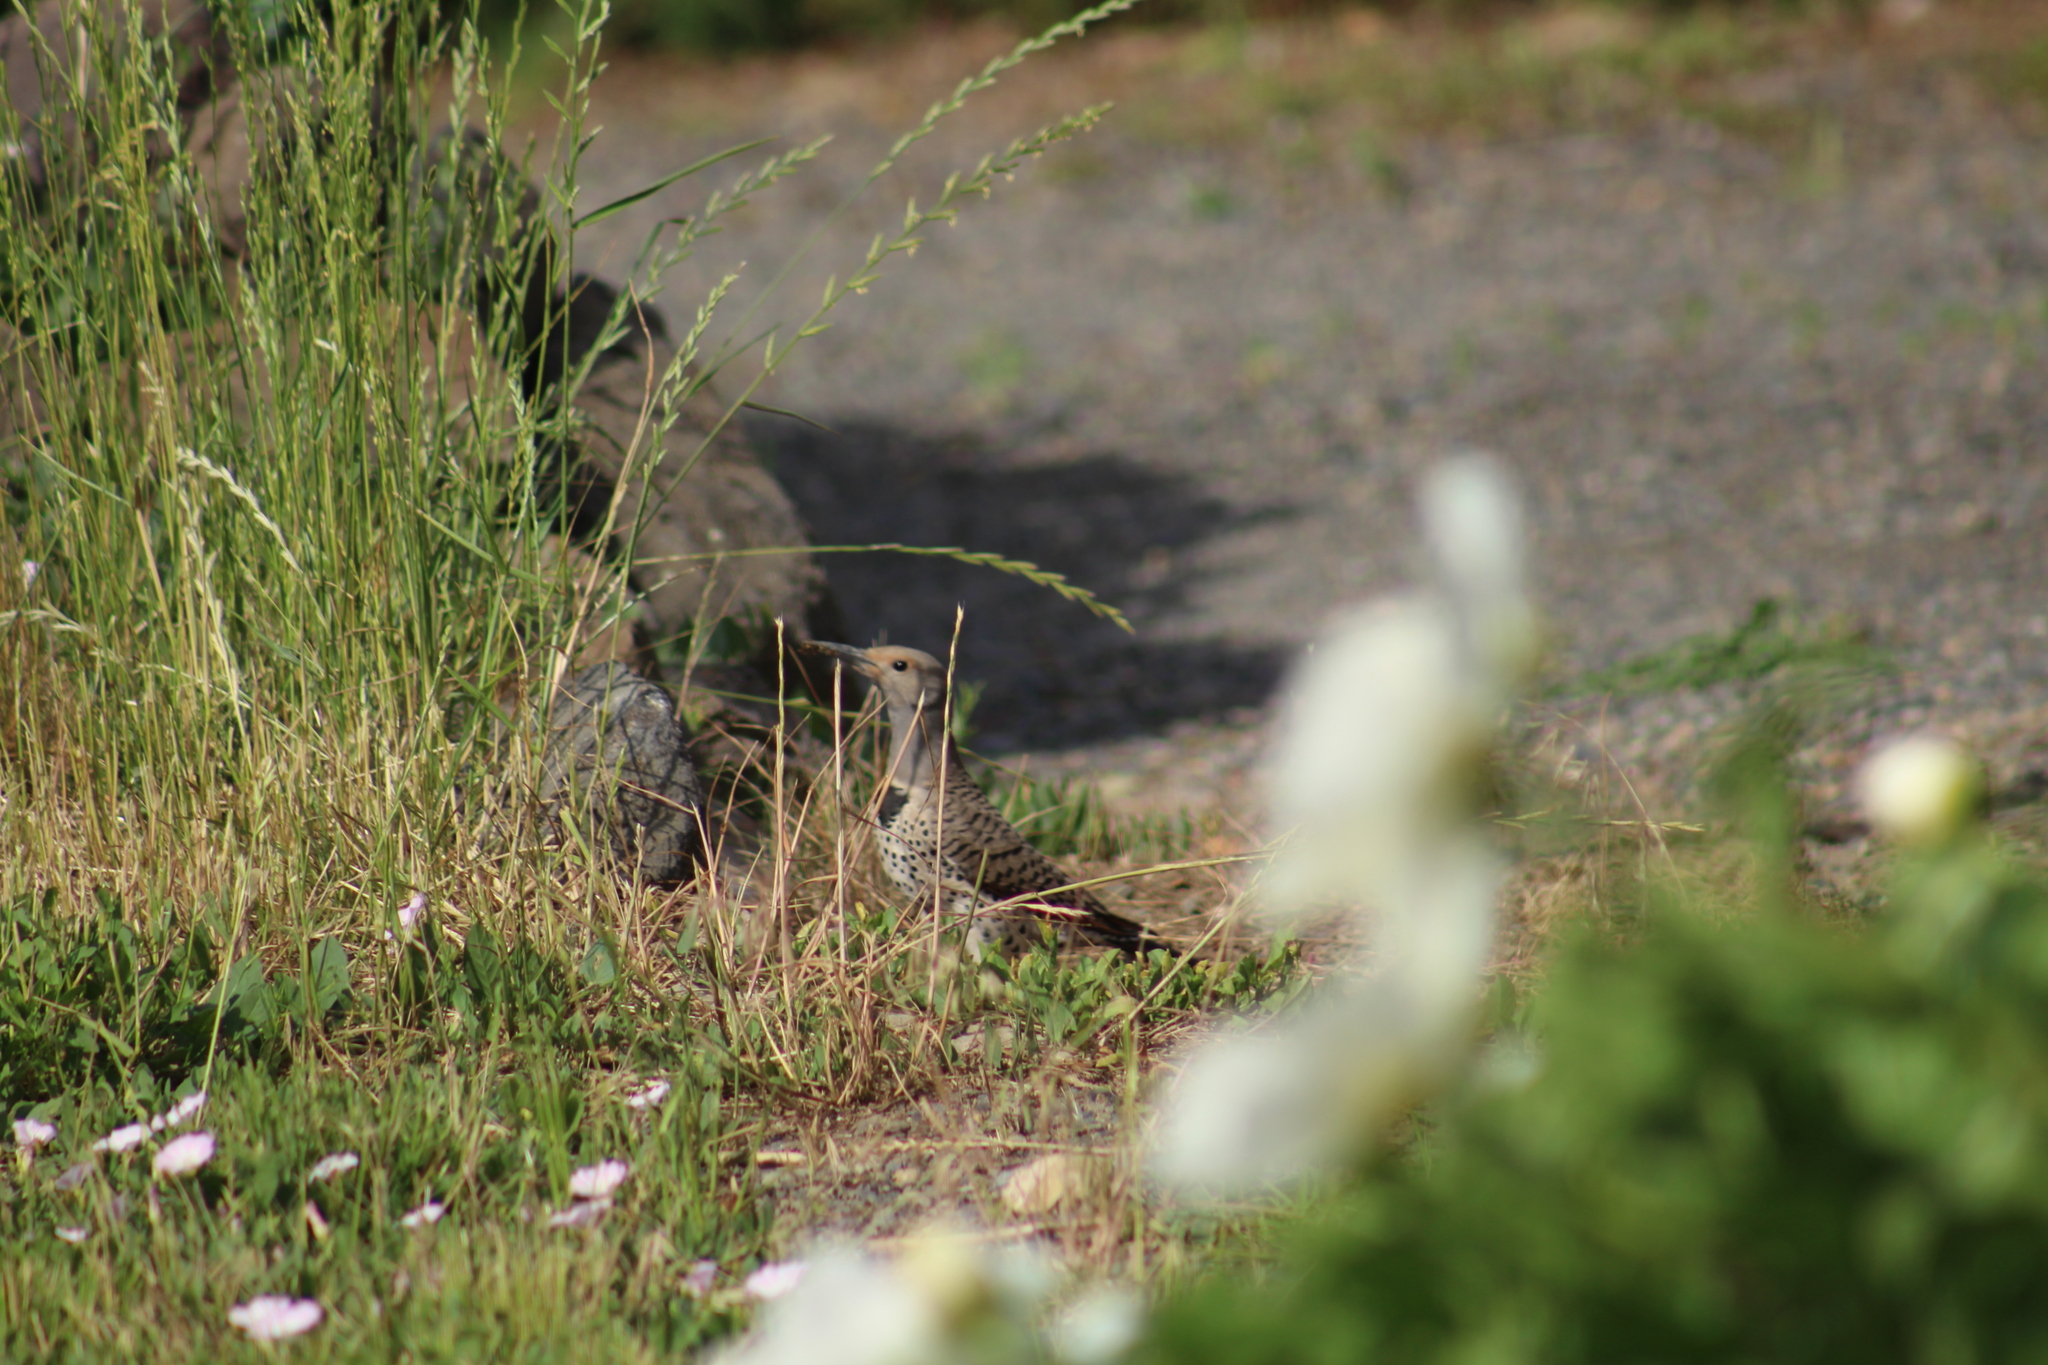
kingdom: Animalia
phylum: Chordata
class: Aves
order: Piciformes
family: Picidae
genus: Colaptes
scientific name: Colaptes auratus
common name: Northern flicker
